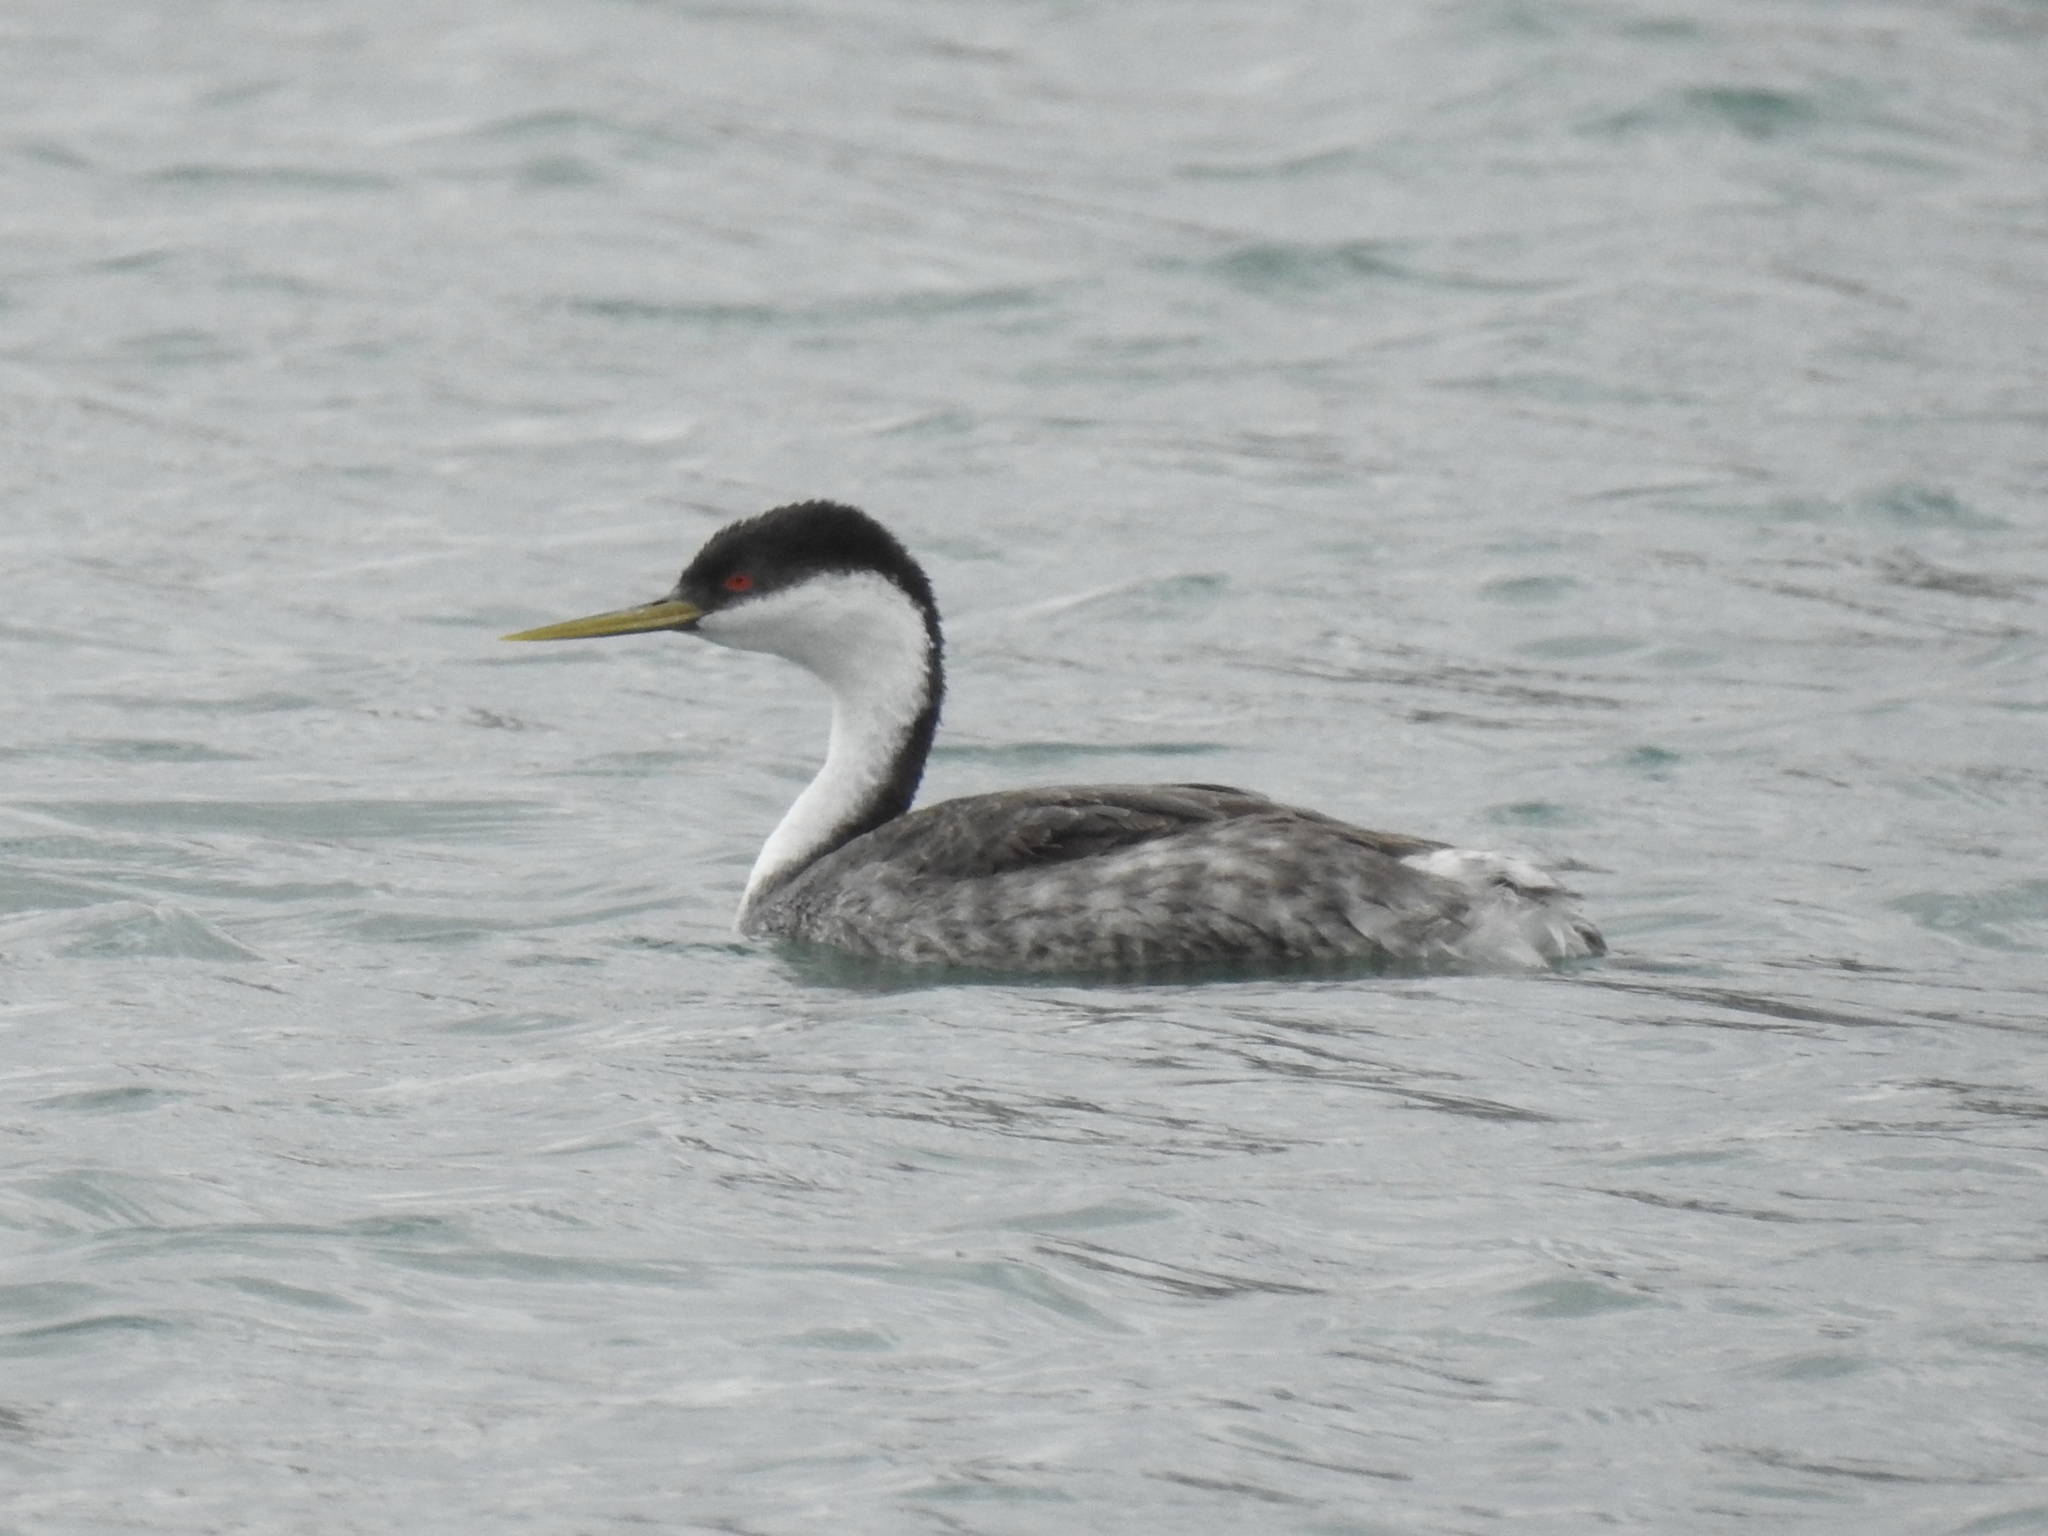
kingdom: Animalia
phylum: Chordata
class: Aves
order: Podicipediformes
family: Podicipedidae
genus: Aechmophorus
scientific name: Aechmophorus occidentalis
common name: Western grebe
